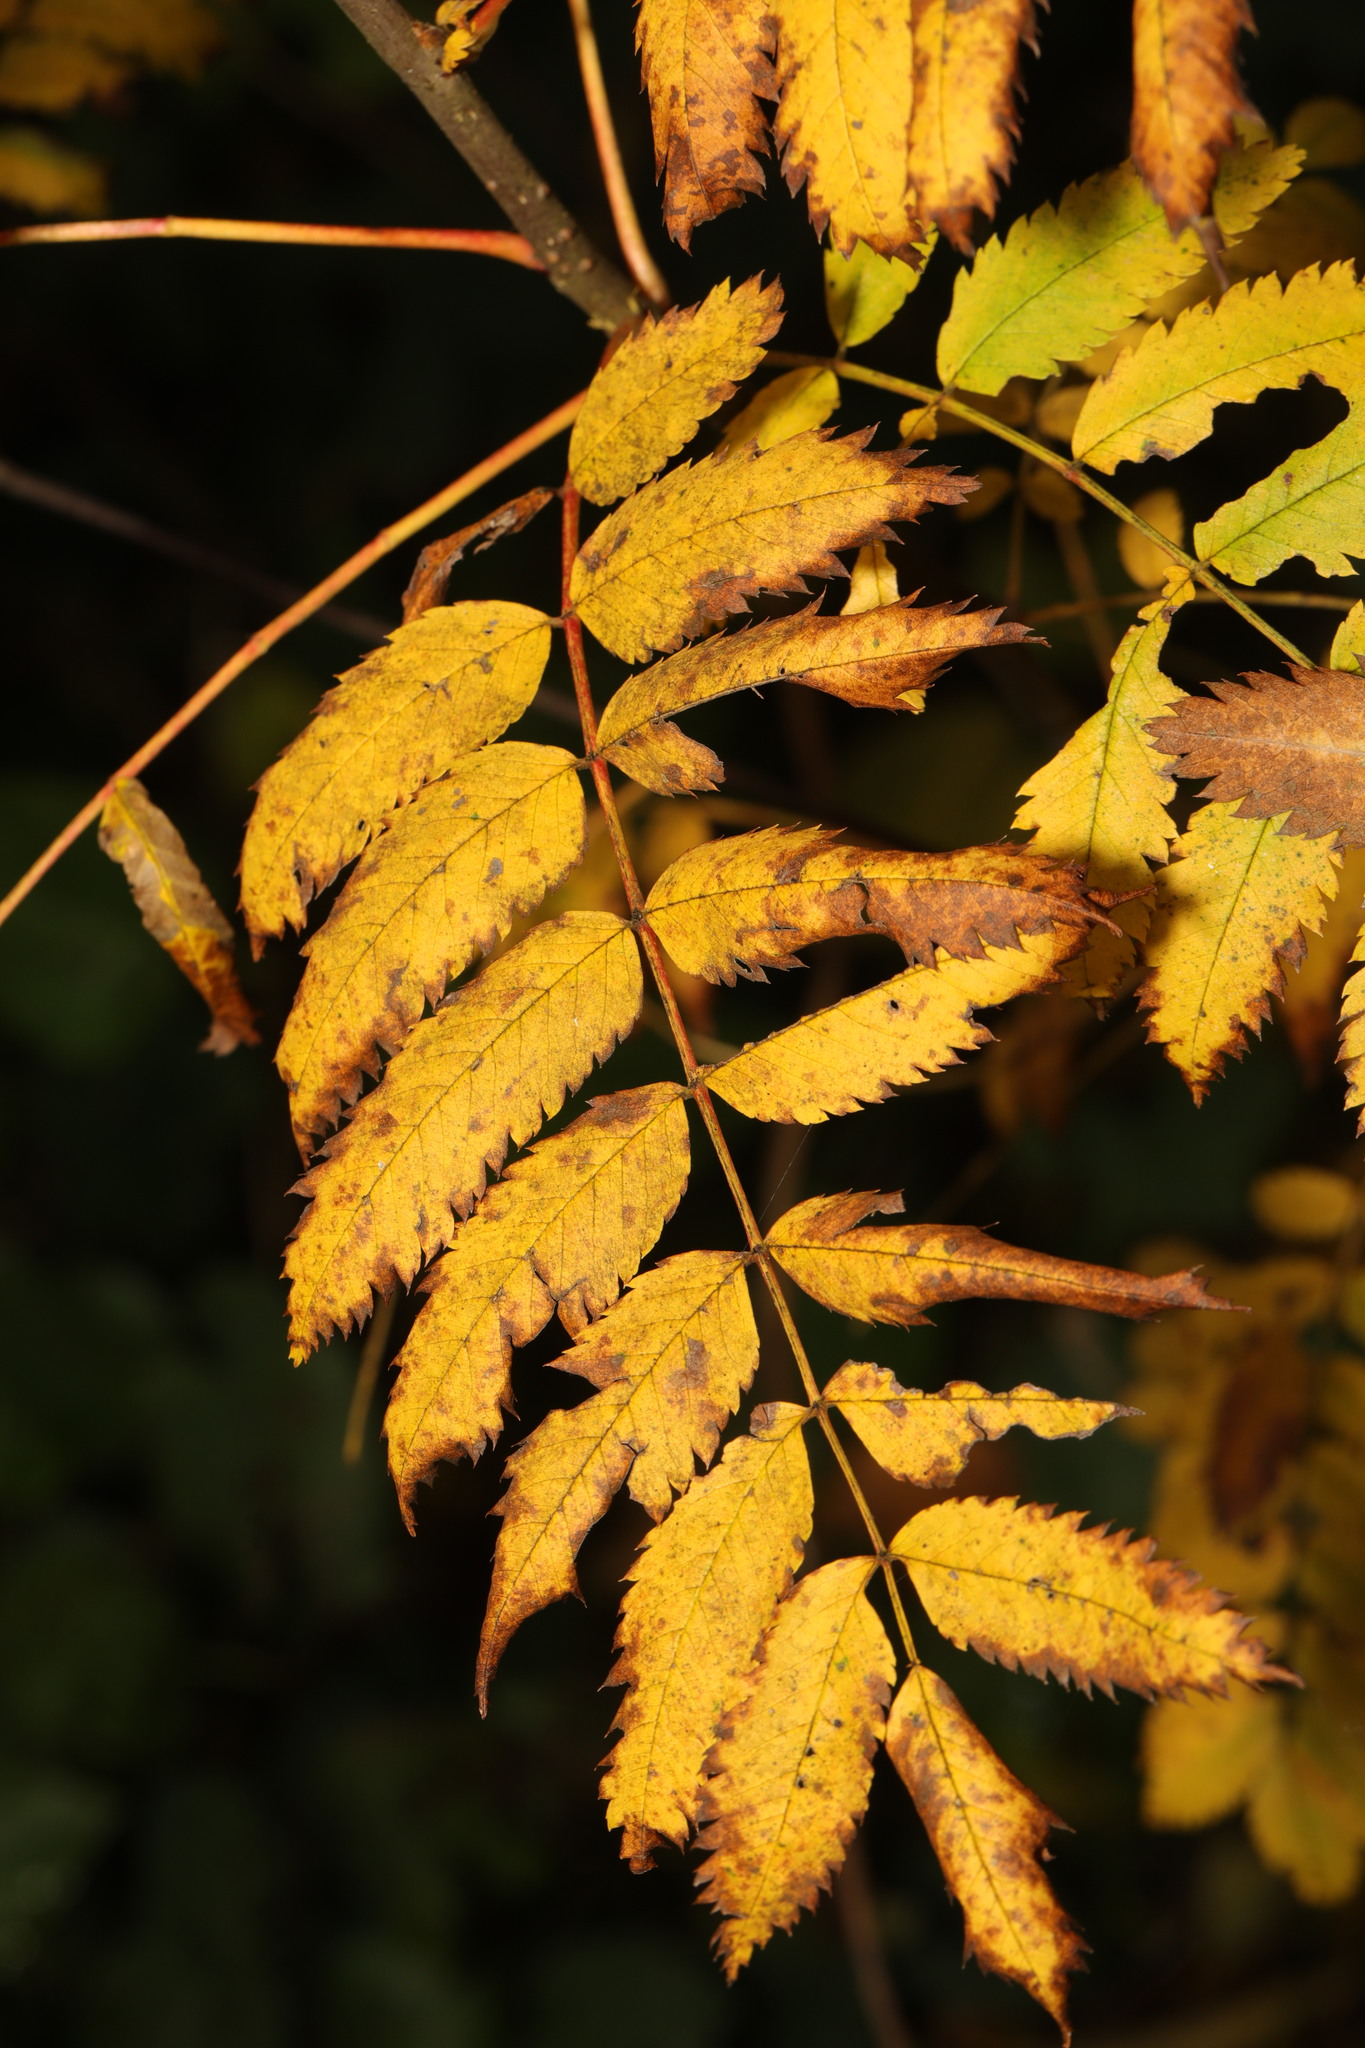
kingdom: Plantae
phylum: Tracheophyta
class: Magnoliopsida
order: Rosales
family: Rosaceae
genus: Sorbus
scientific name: Sorbus aucuparia
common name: Rowan
